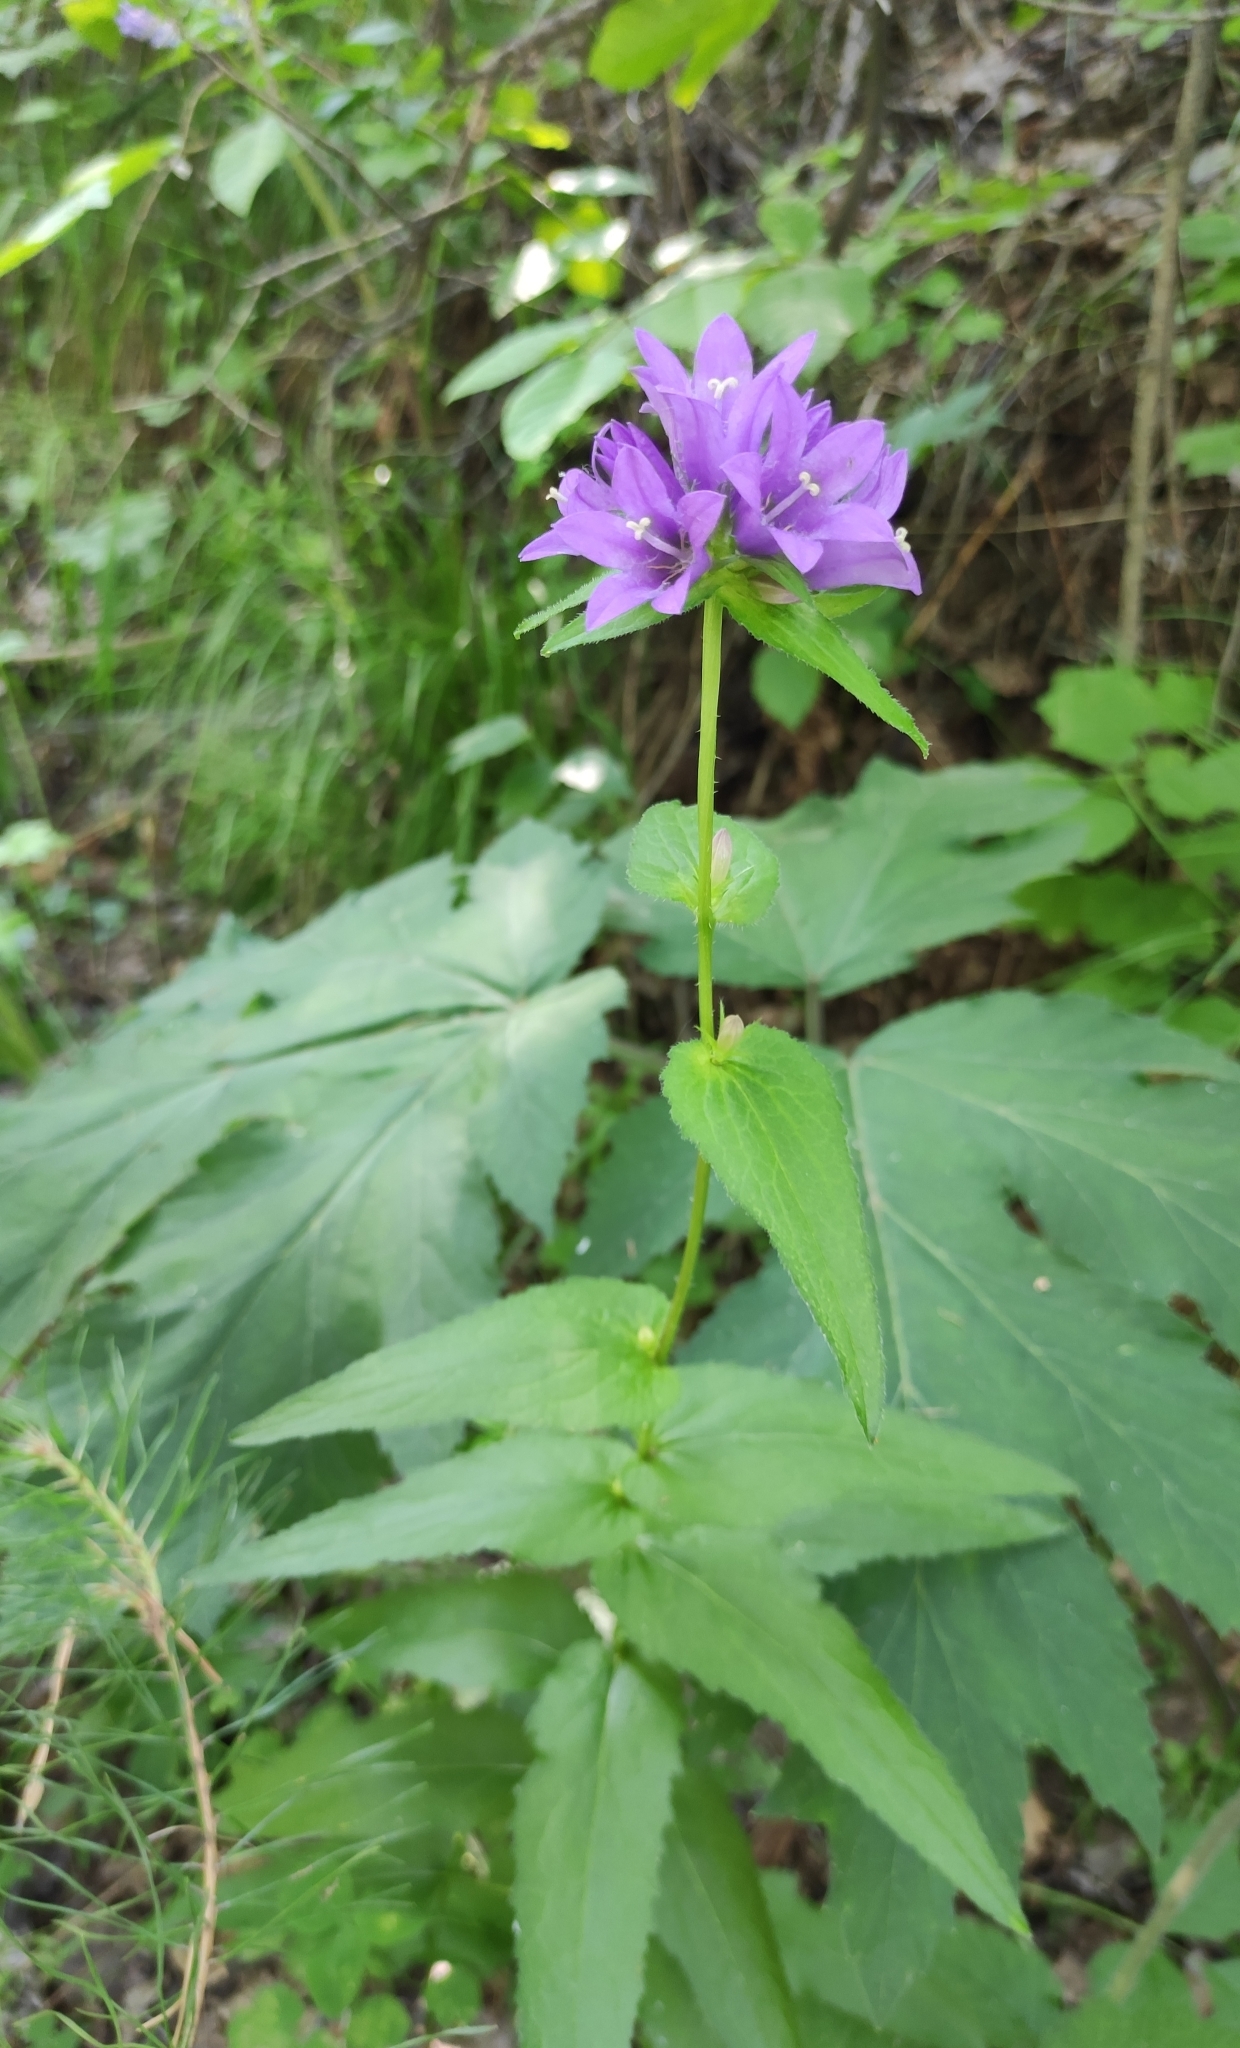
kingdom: Plantae
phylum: Tracheophyta
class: Magnoliopsida
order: Asterales
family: Campanulaceae
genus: Campanula
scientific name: Campanula glomerata
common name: Clustered bellflower
